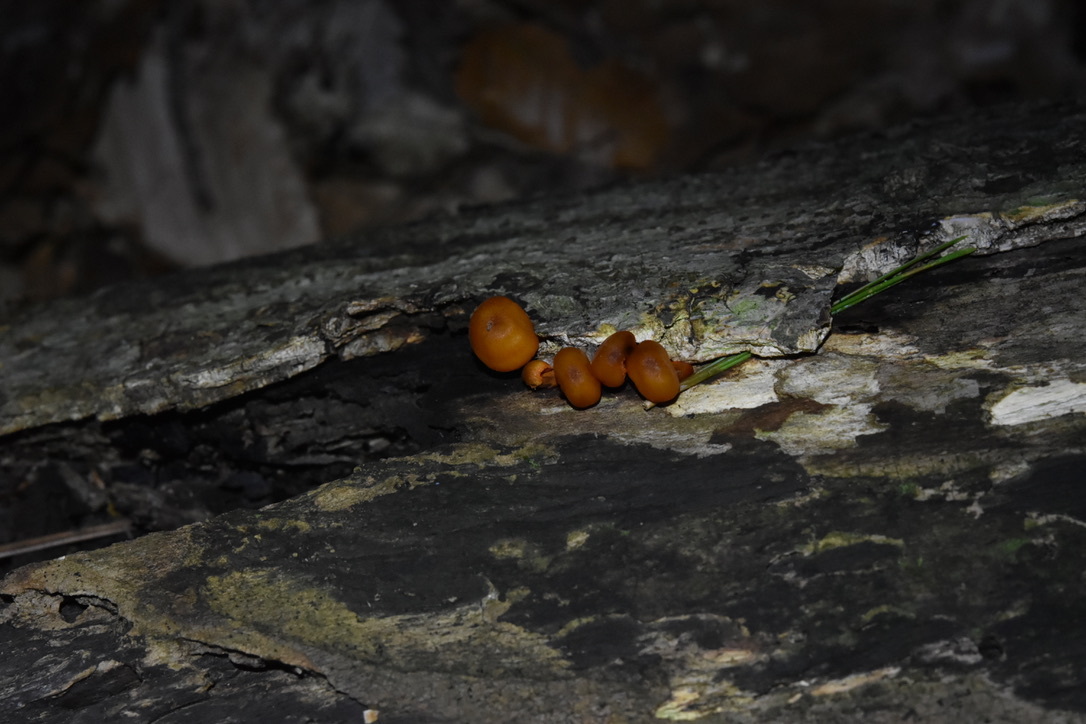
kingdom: Fungi
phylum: Basidiomycota
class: Agaricomycetes
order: Agaricales
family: Mycenaceae
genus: Mycena
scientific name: Mycena leaiana
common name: Orange mycena
